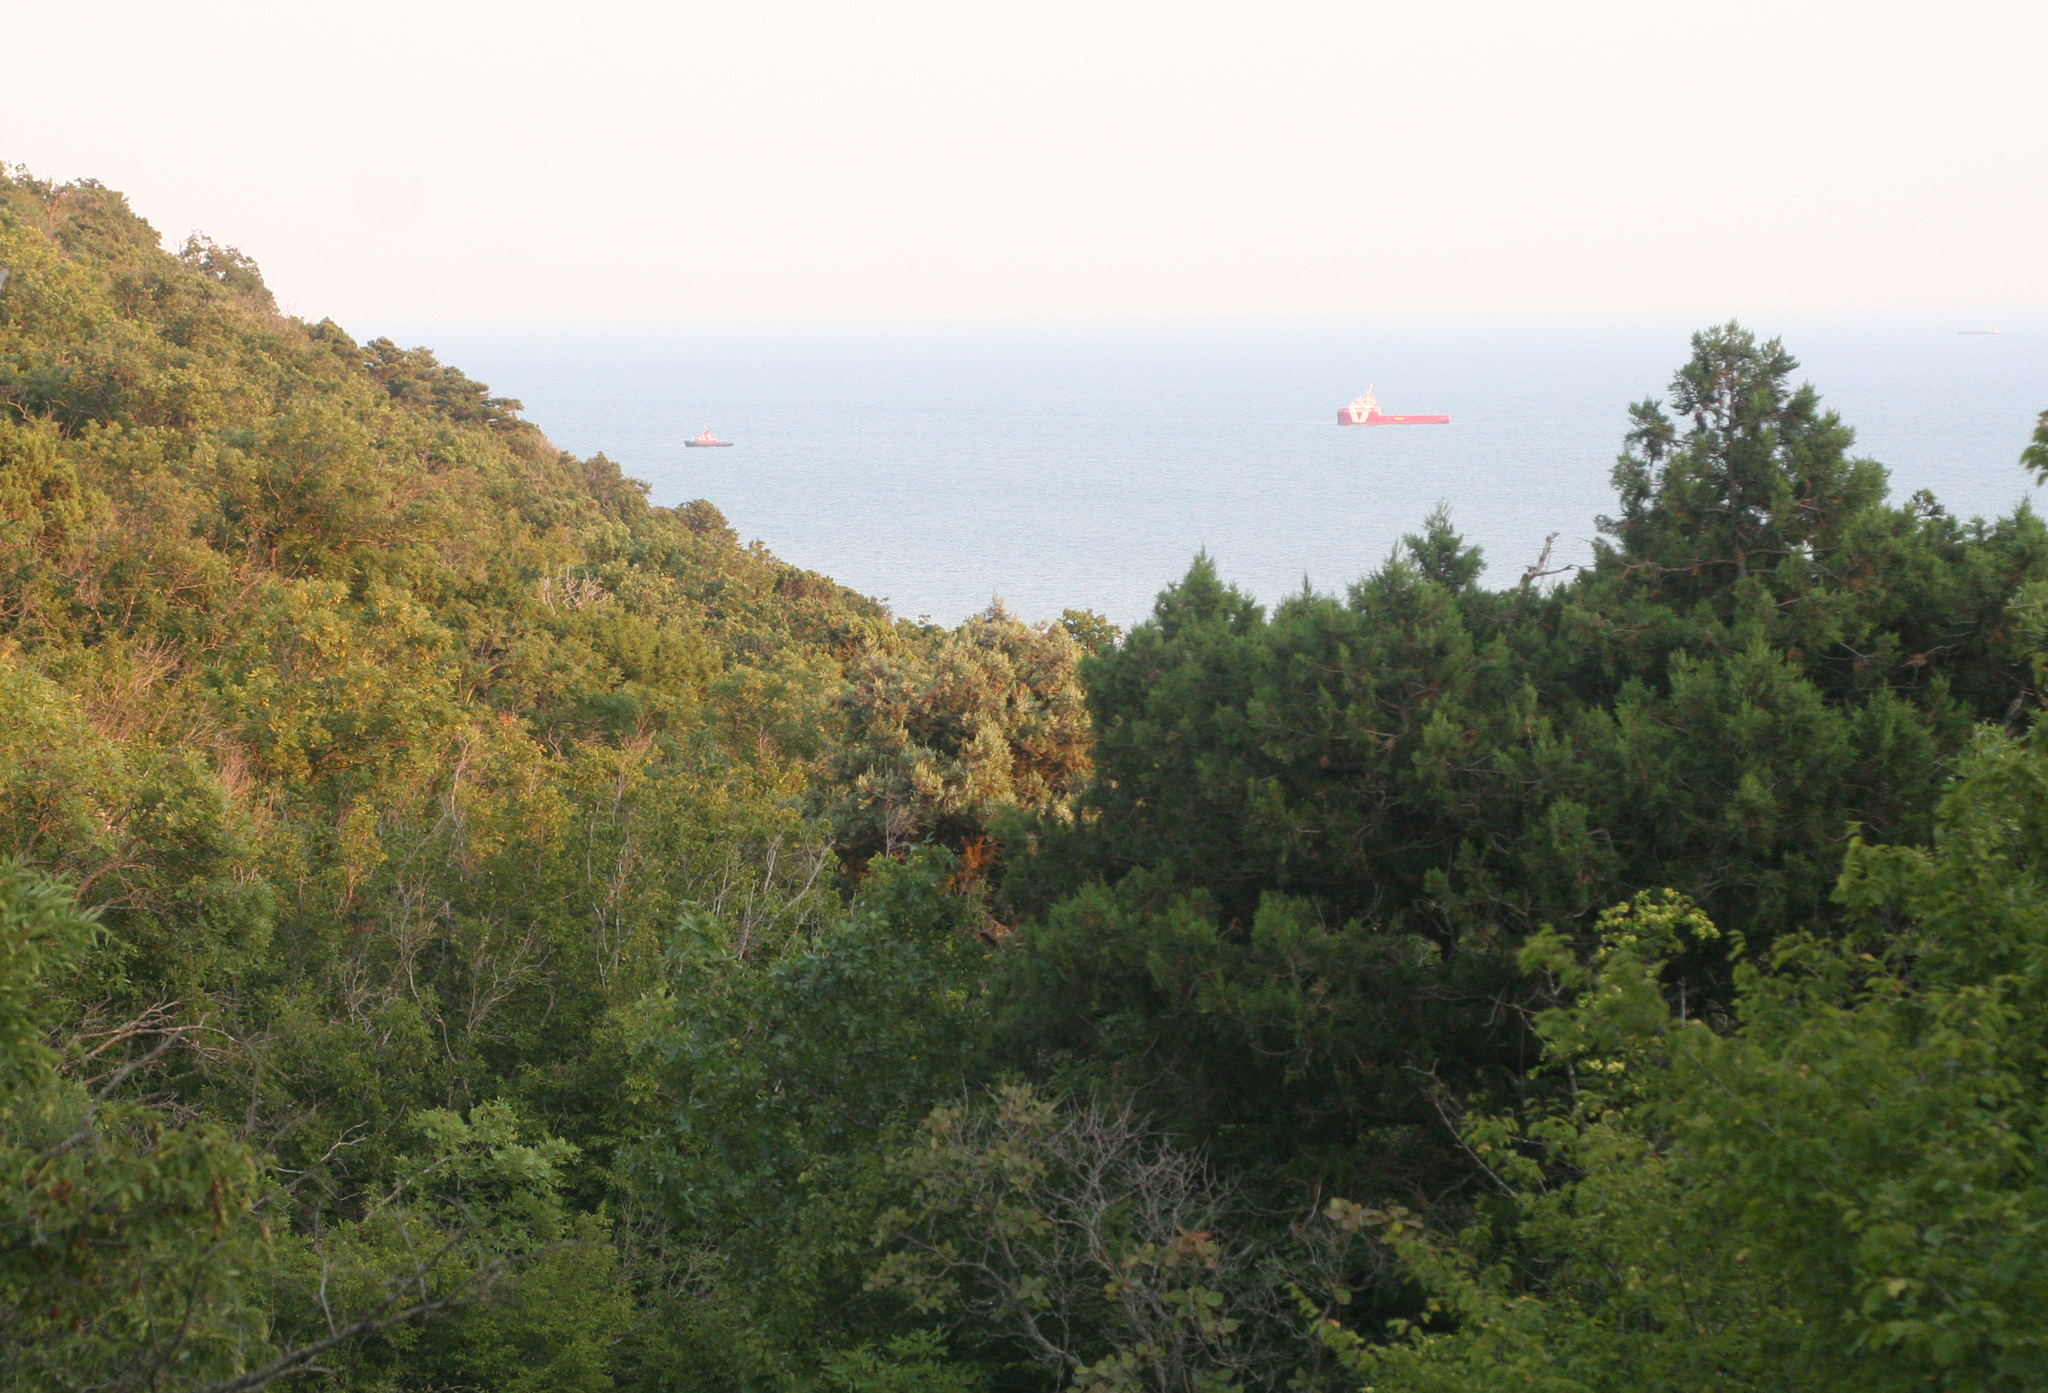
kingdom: Plantae
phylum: Tracheophyta
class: Pinopsida
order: Pinales
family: Cupressaceae
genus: Juniperus
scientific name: Juniperus excelsa
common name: Crimean juniper
